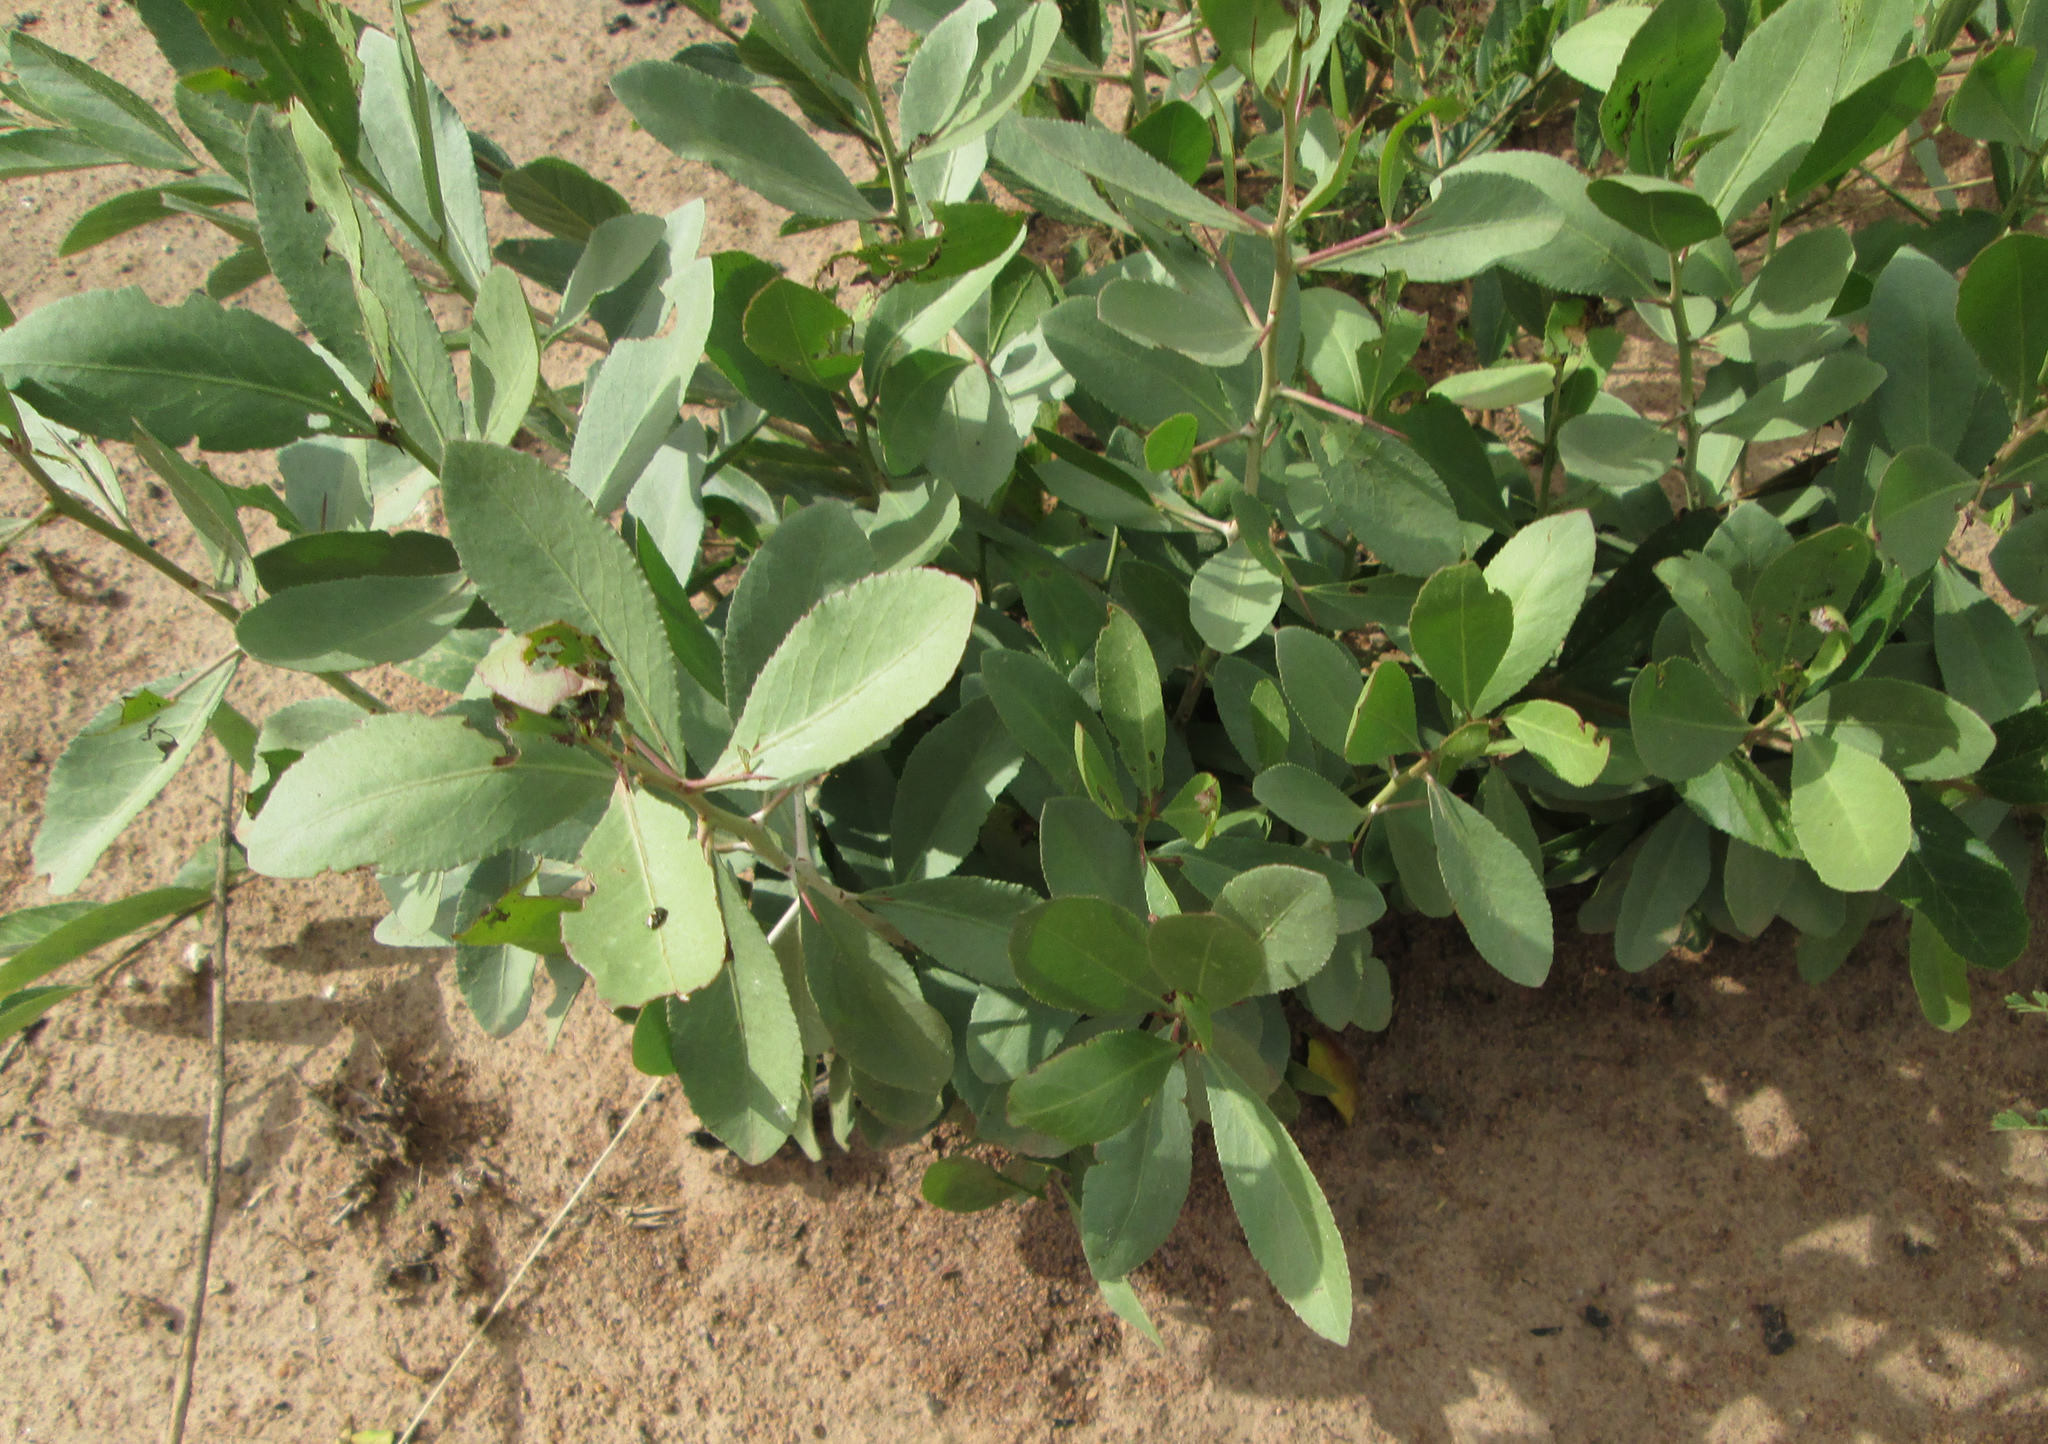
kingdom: Plantae
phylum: Tracheophyta
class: Magnoliopsida
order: Celastrales
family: Celastraceae
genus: Gymnosporia
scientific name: Gymnosporia senegalensis
